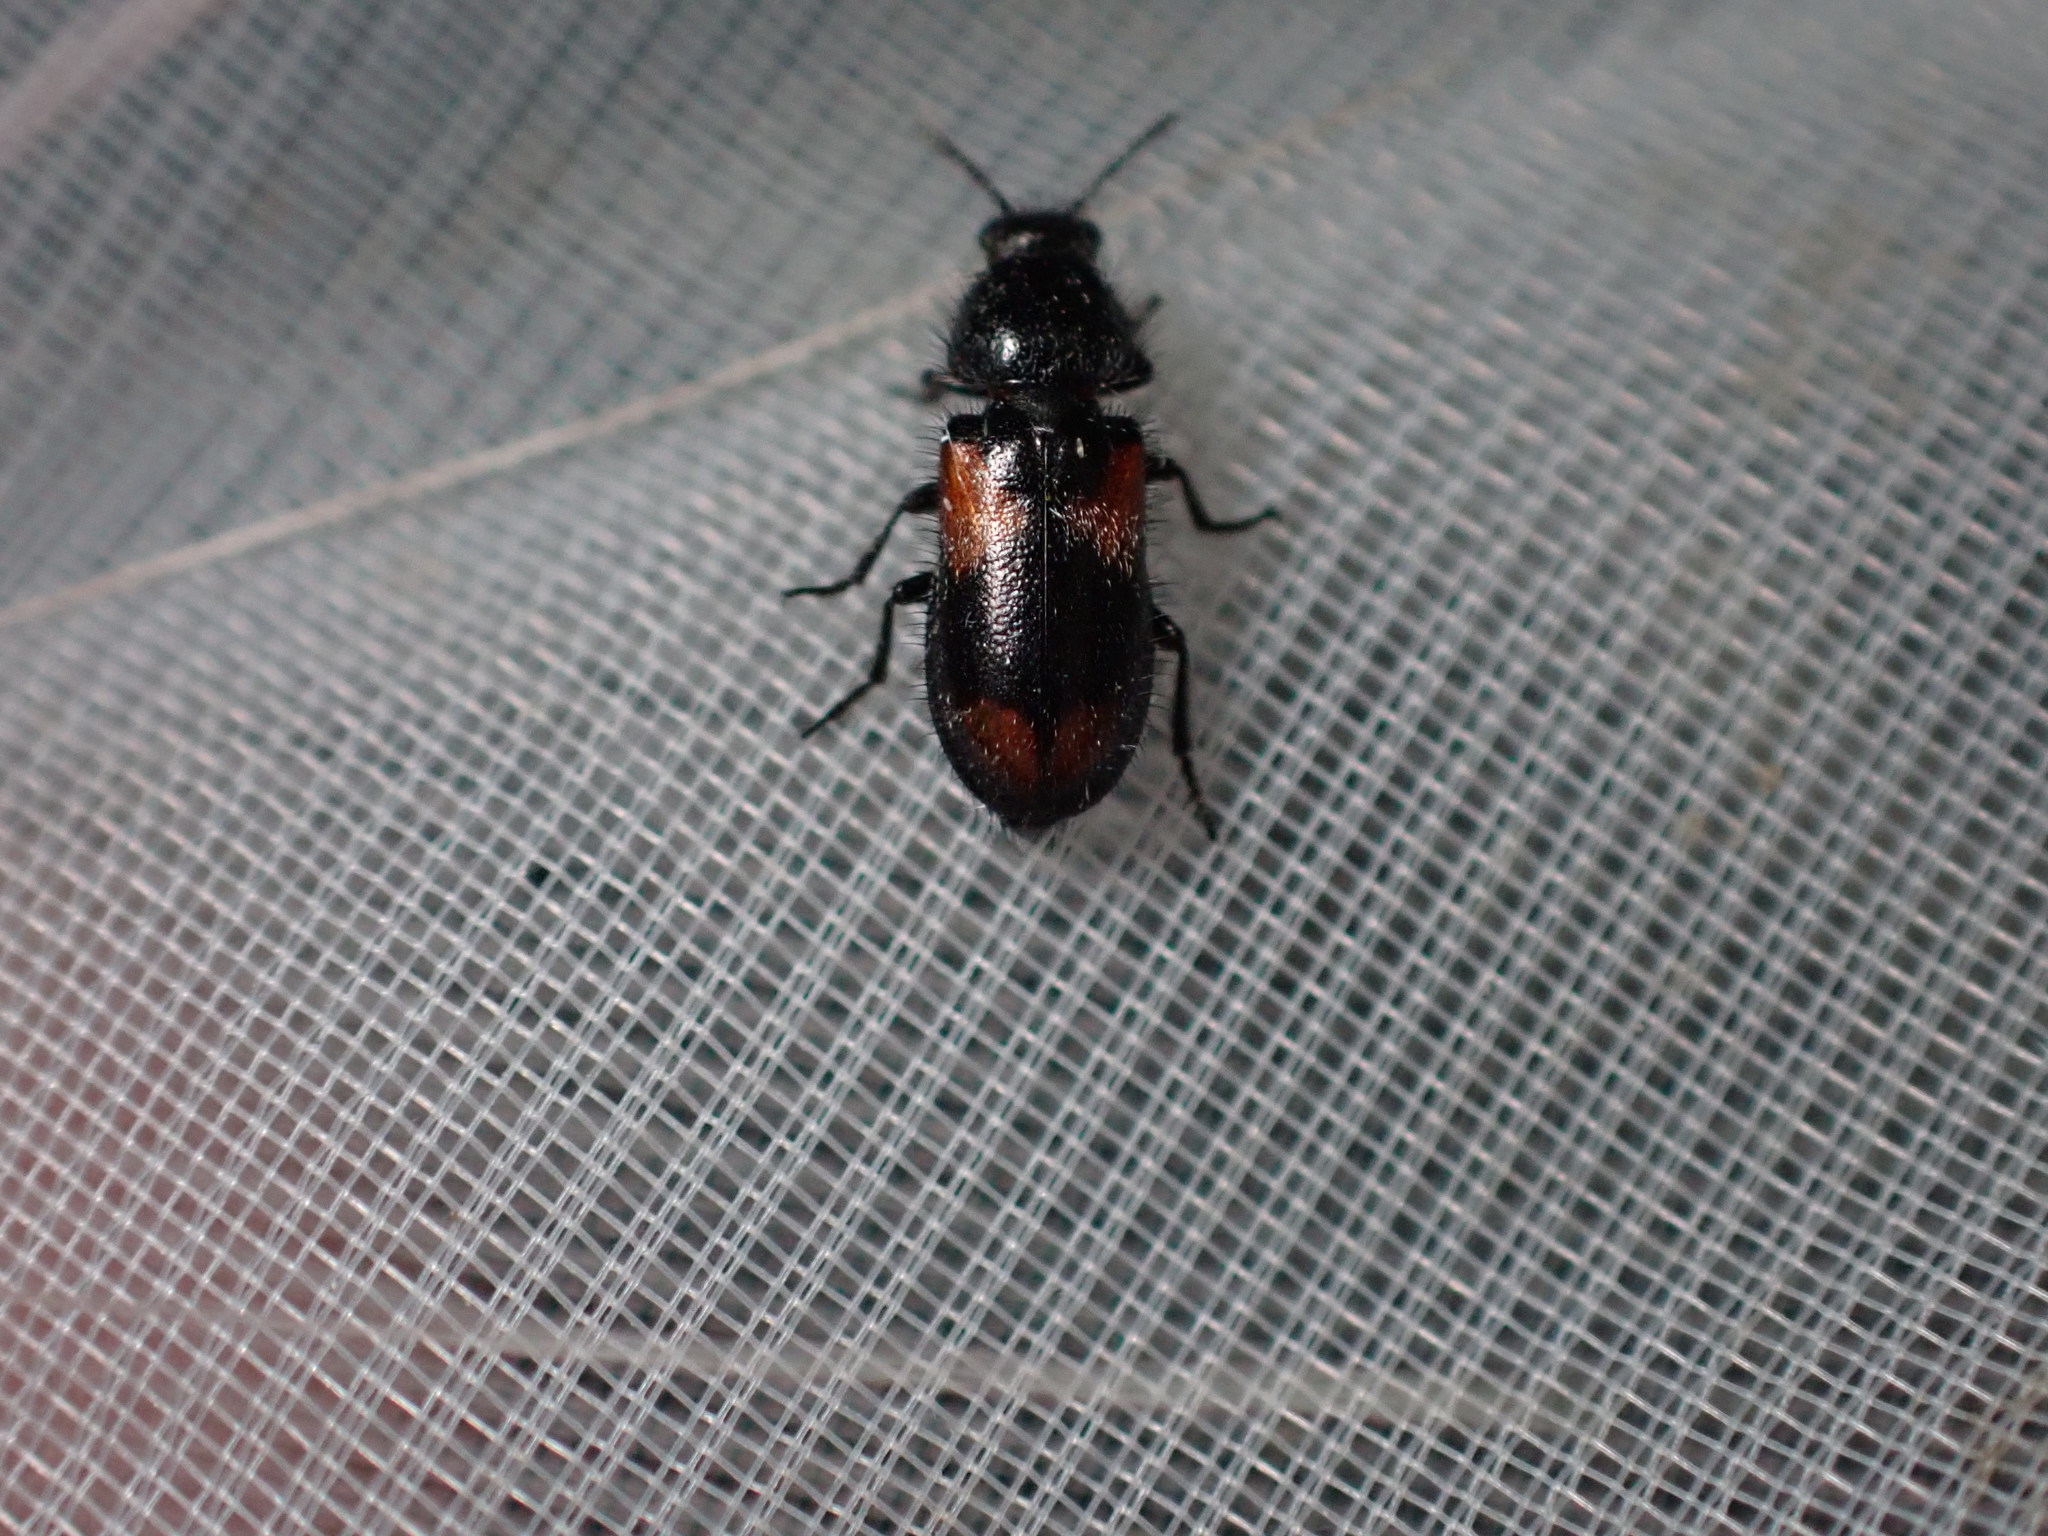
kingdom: Animalia
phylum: Arthropoda
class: Insecta
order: Coleoptera
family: Melyridae
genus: Divales
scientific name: Divales quadrimaculatus
